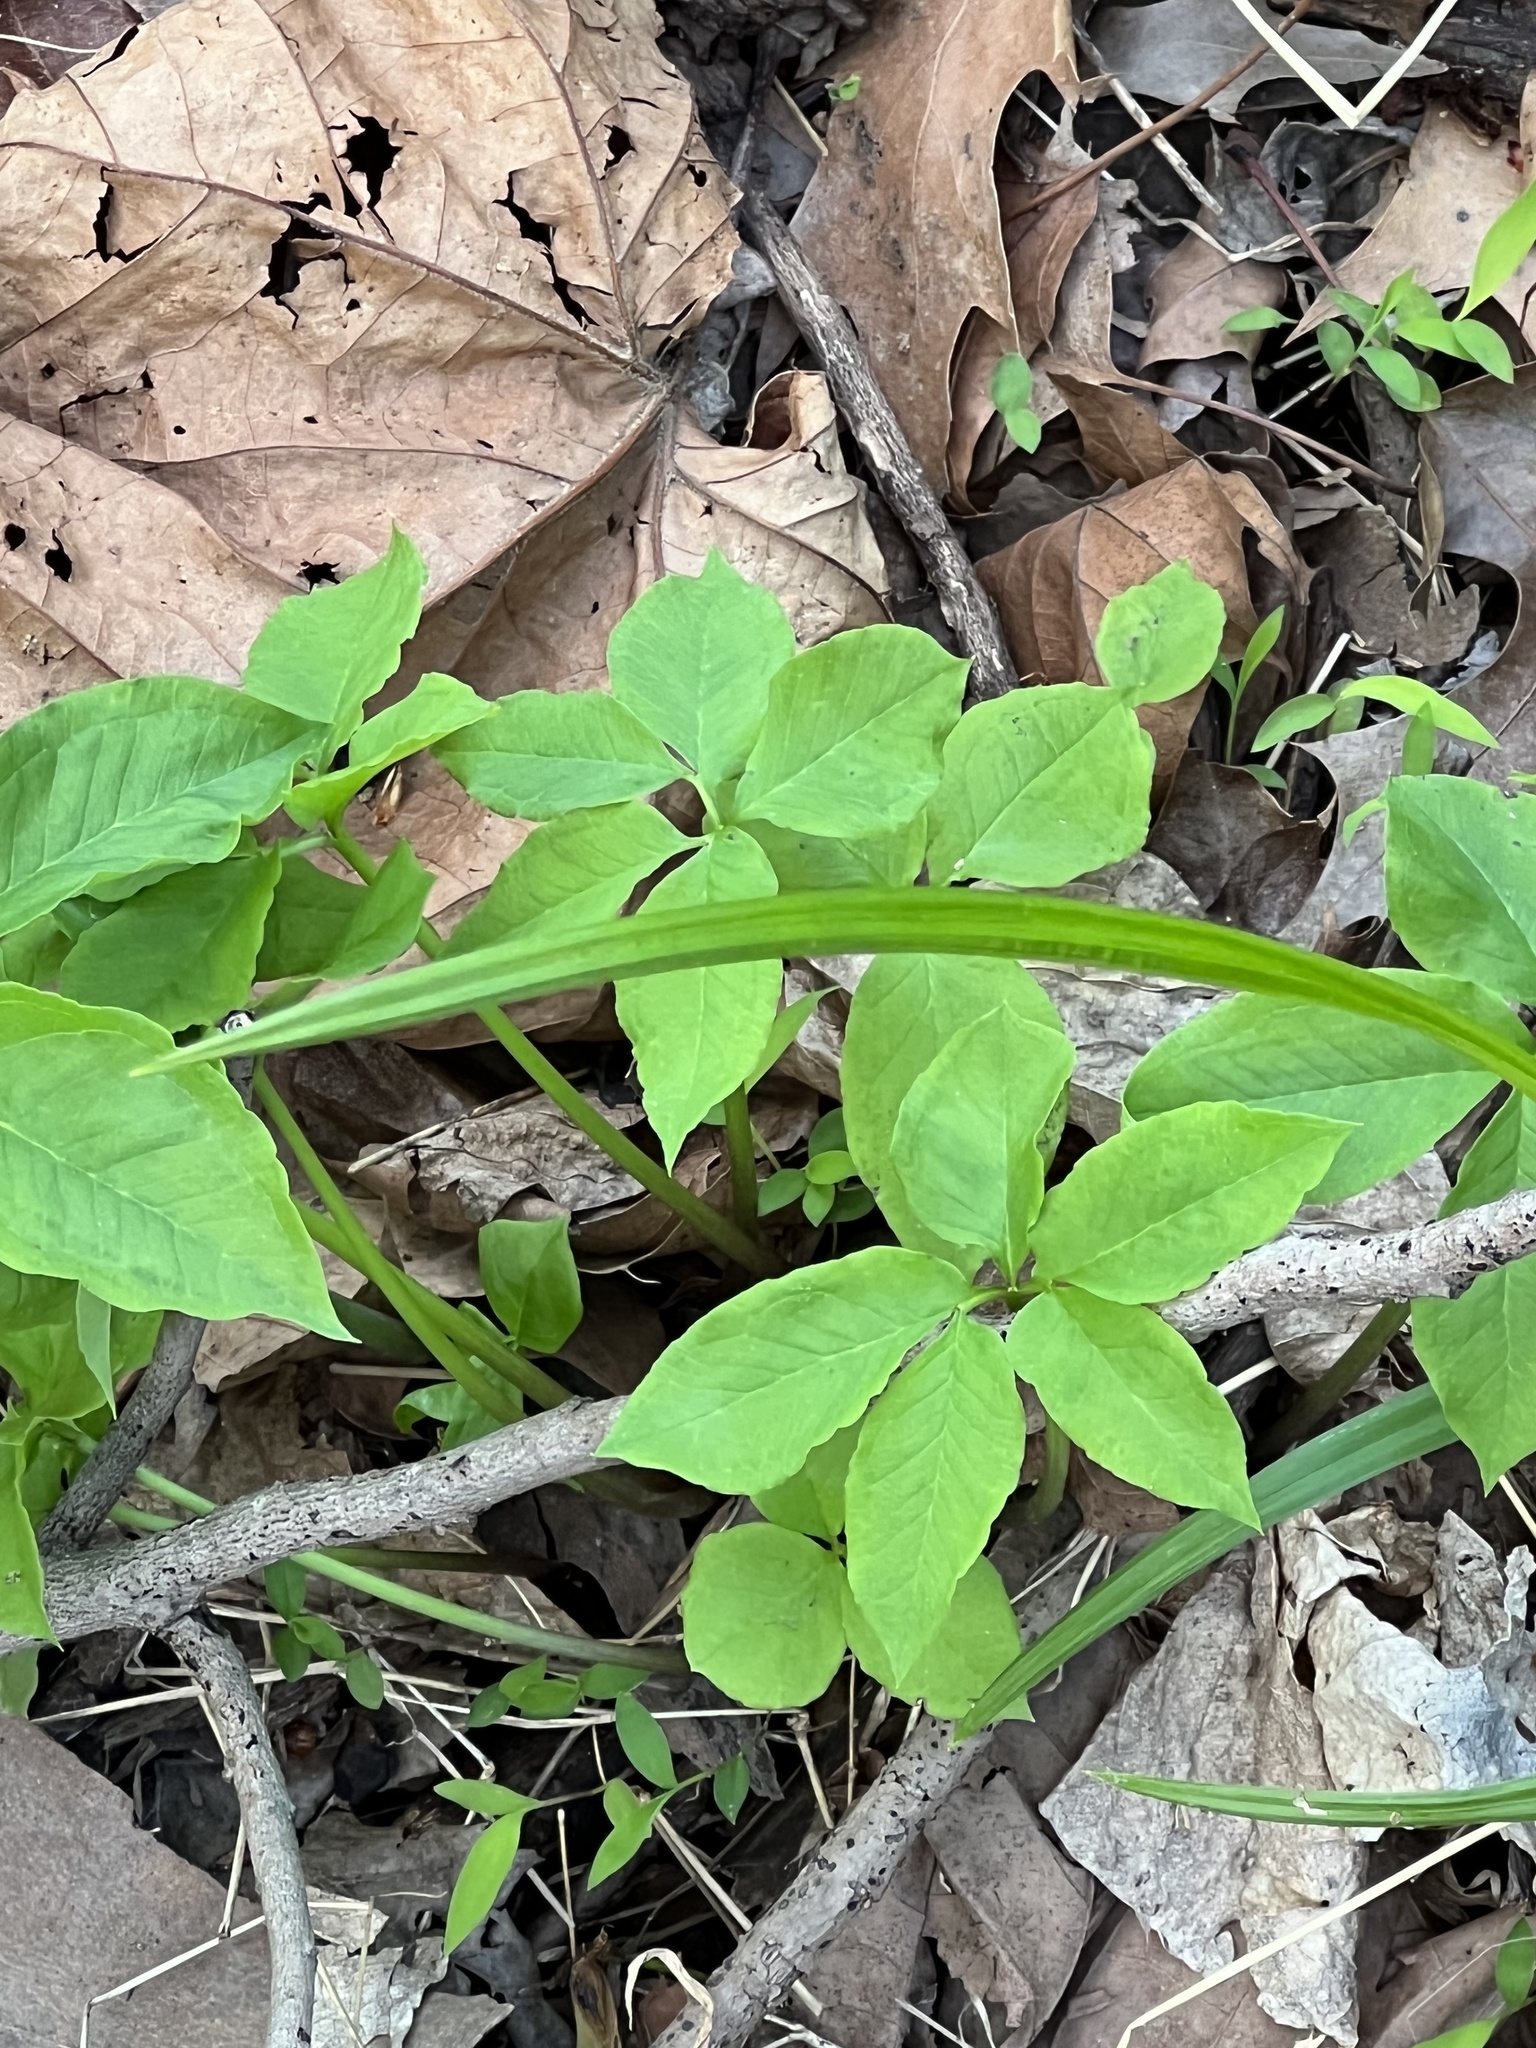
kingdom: Plantae
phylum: Tracheophyta
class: Liliopsida
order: Alismatales
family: Araceae
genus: Arisaema
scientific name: Arisaema dracontium
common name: Dragon-arum
